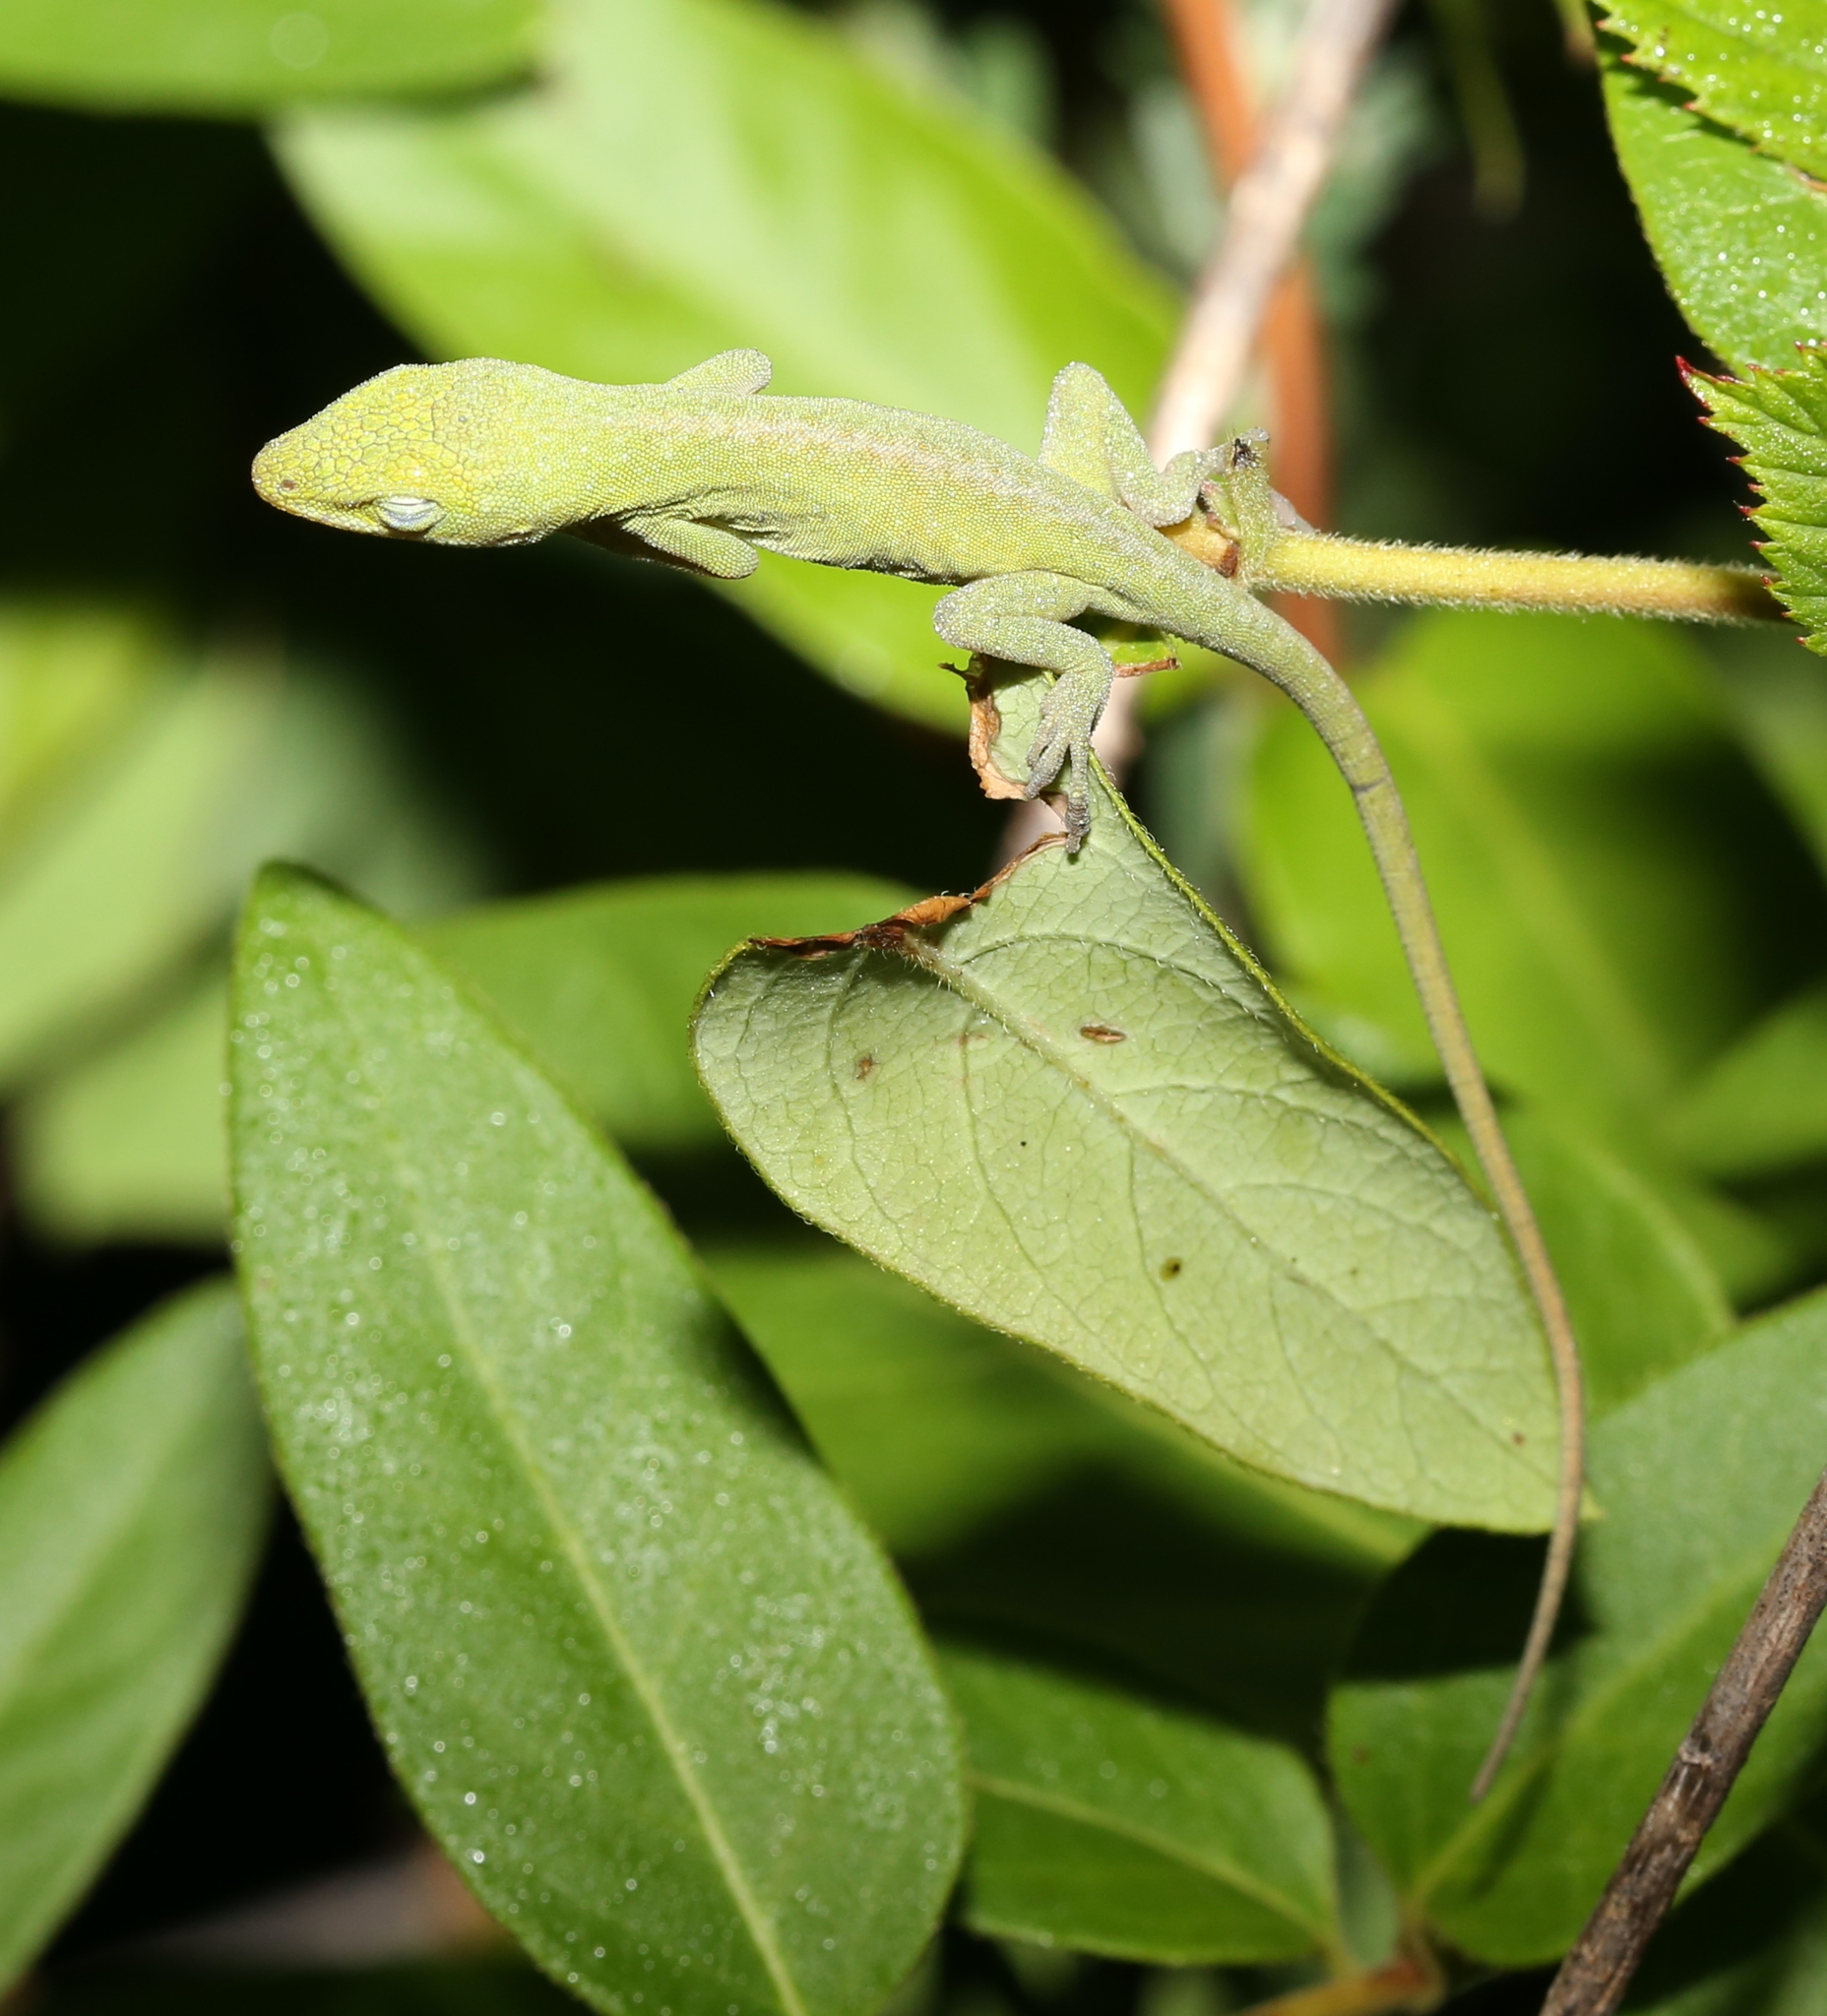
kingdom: Animalia
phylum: Chordata
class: Squamata
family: Dactyloidae
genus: Anolis
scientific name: Anolis carolinensis
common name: Green anole
